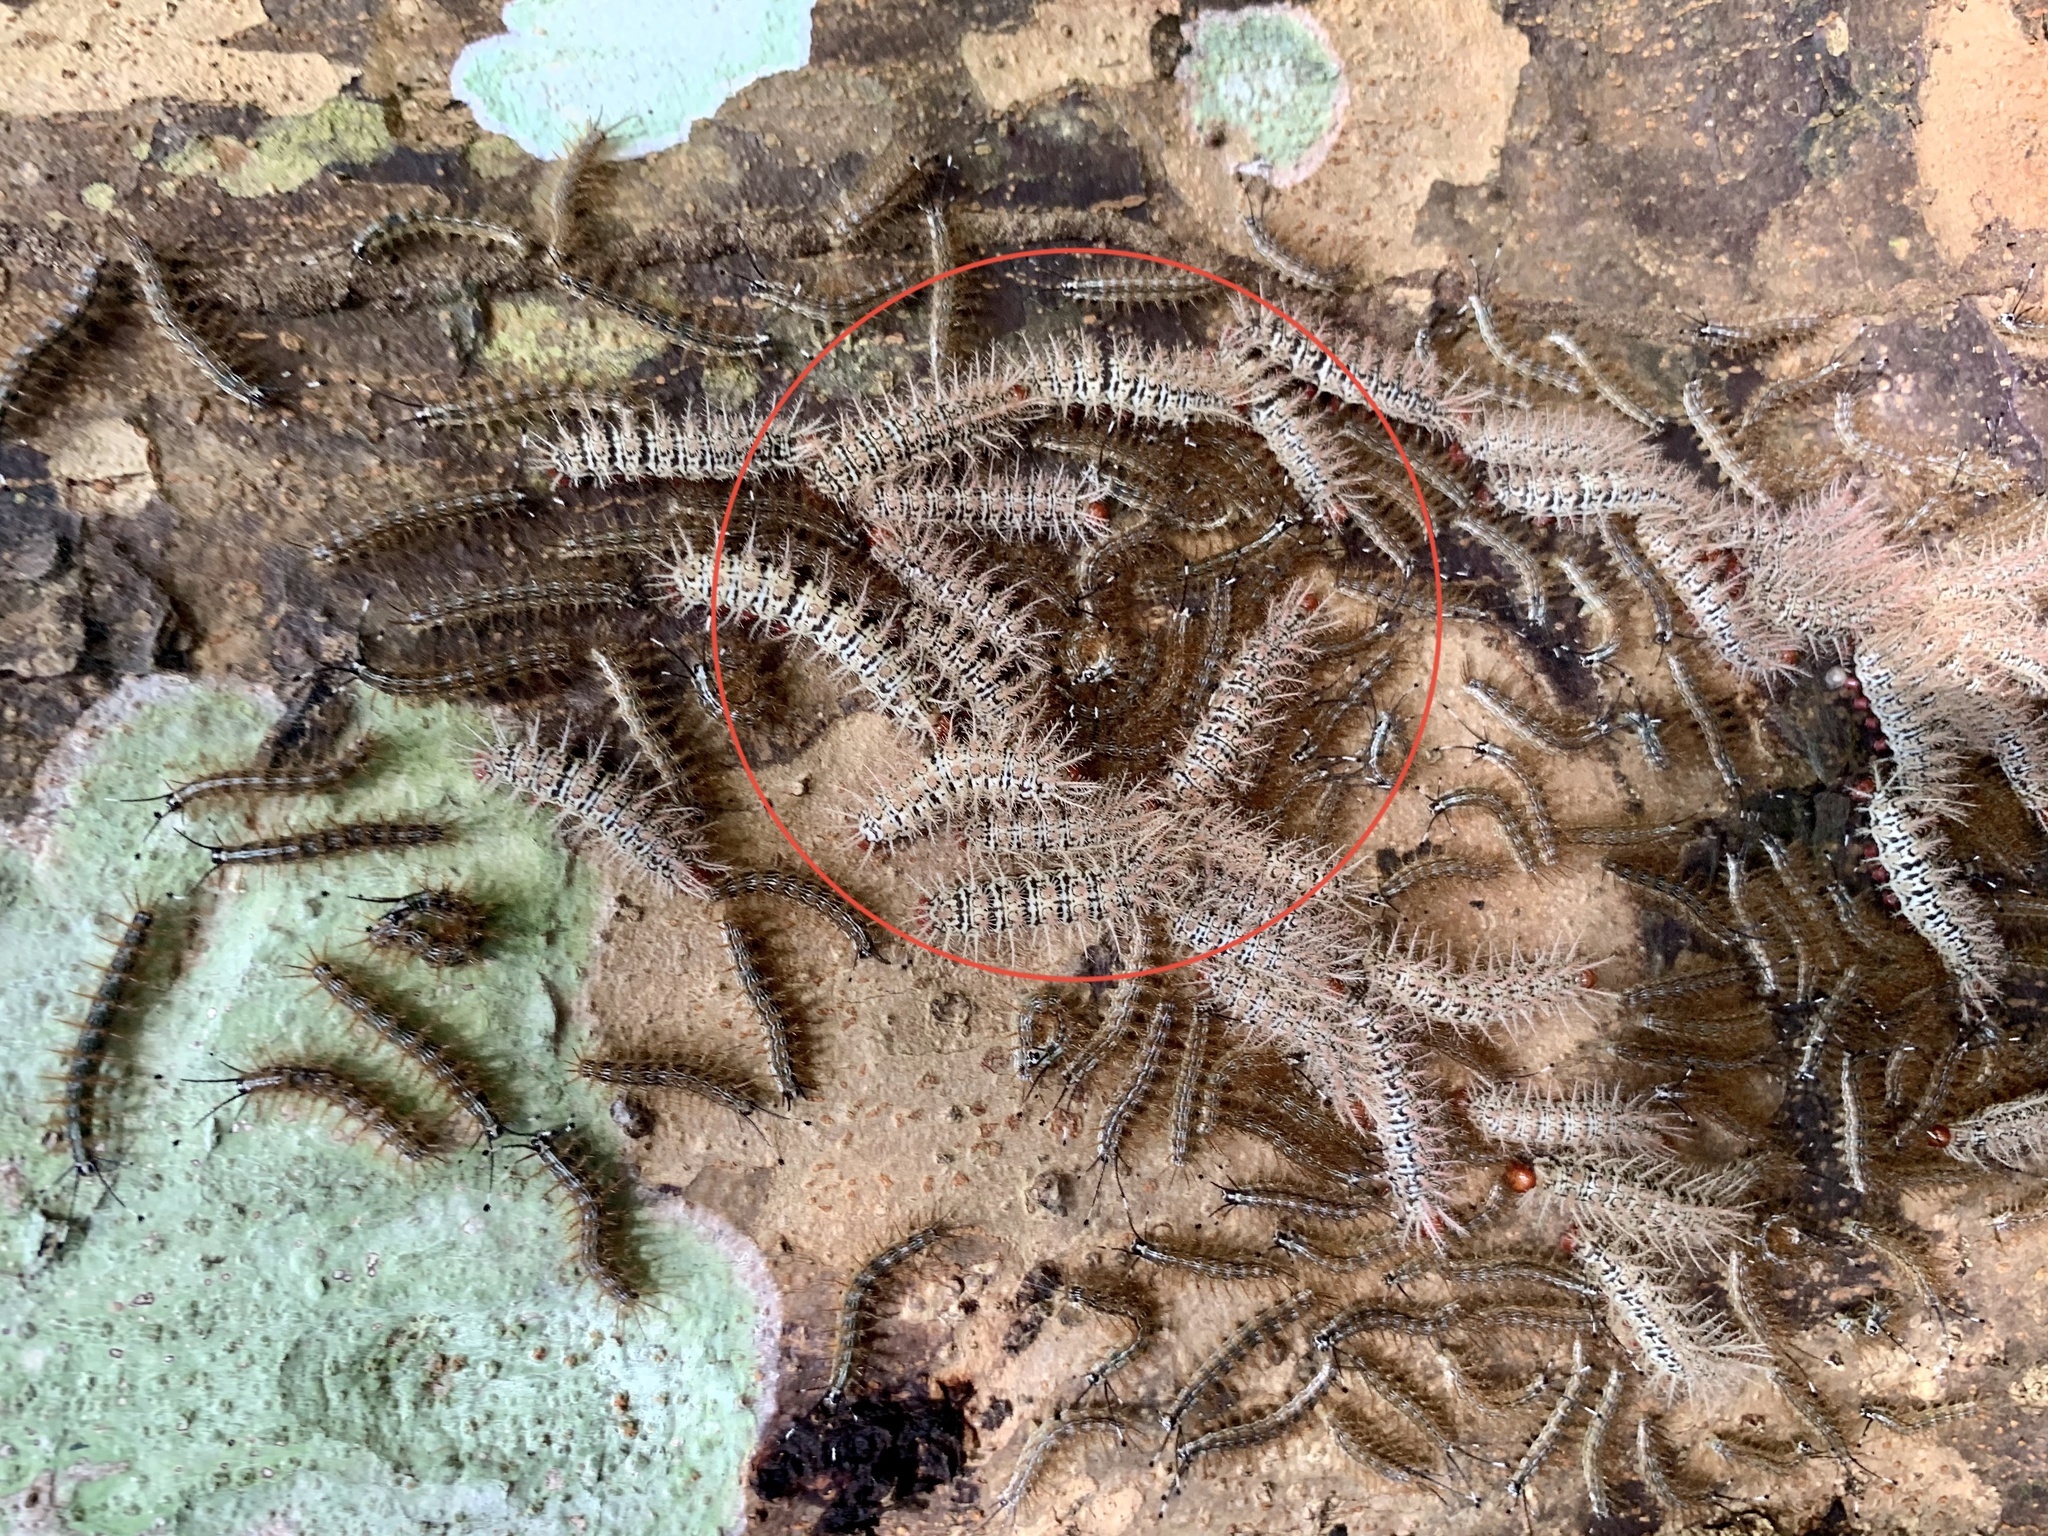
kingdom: Animalia
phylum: Arthropoda
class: Insecta
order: Lepidoptera
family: Saturniidae
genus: Hylesia
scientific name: Hylesia umbratula
